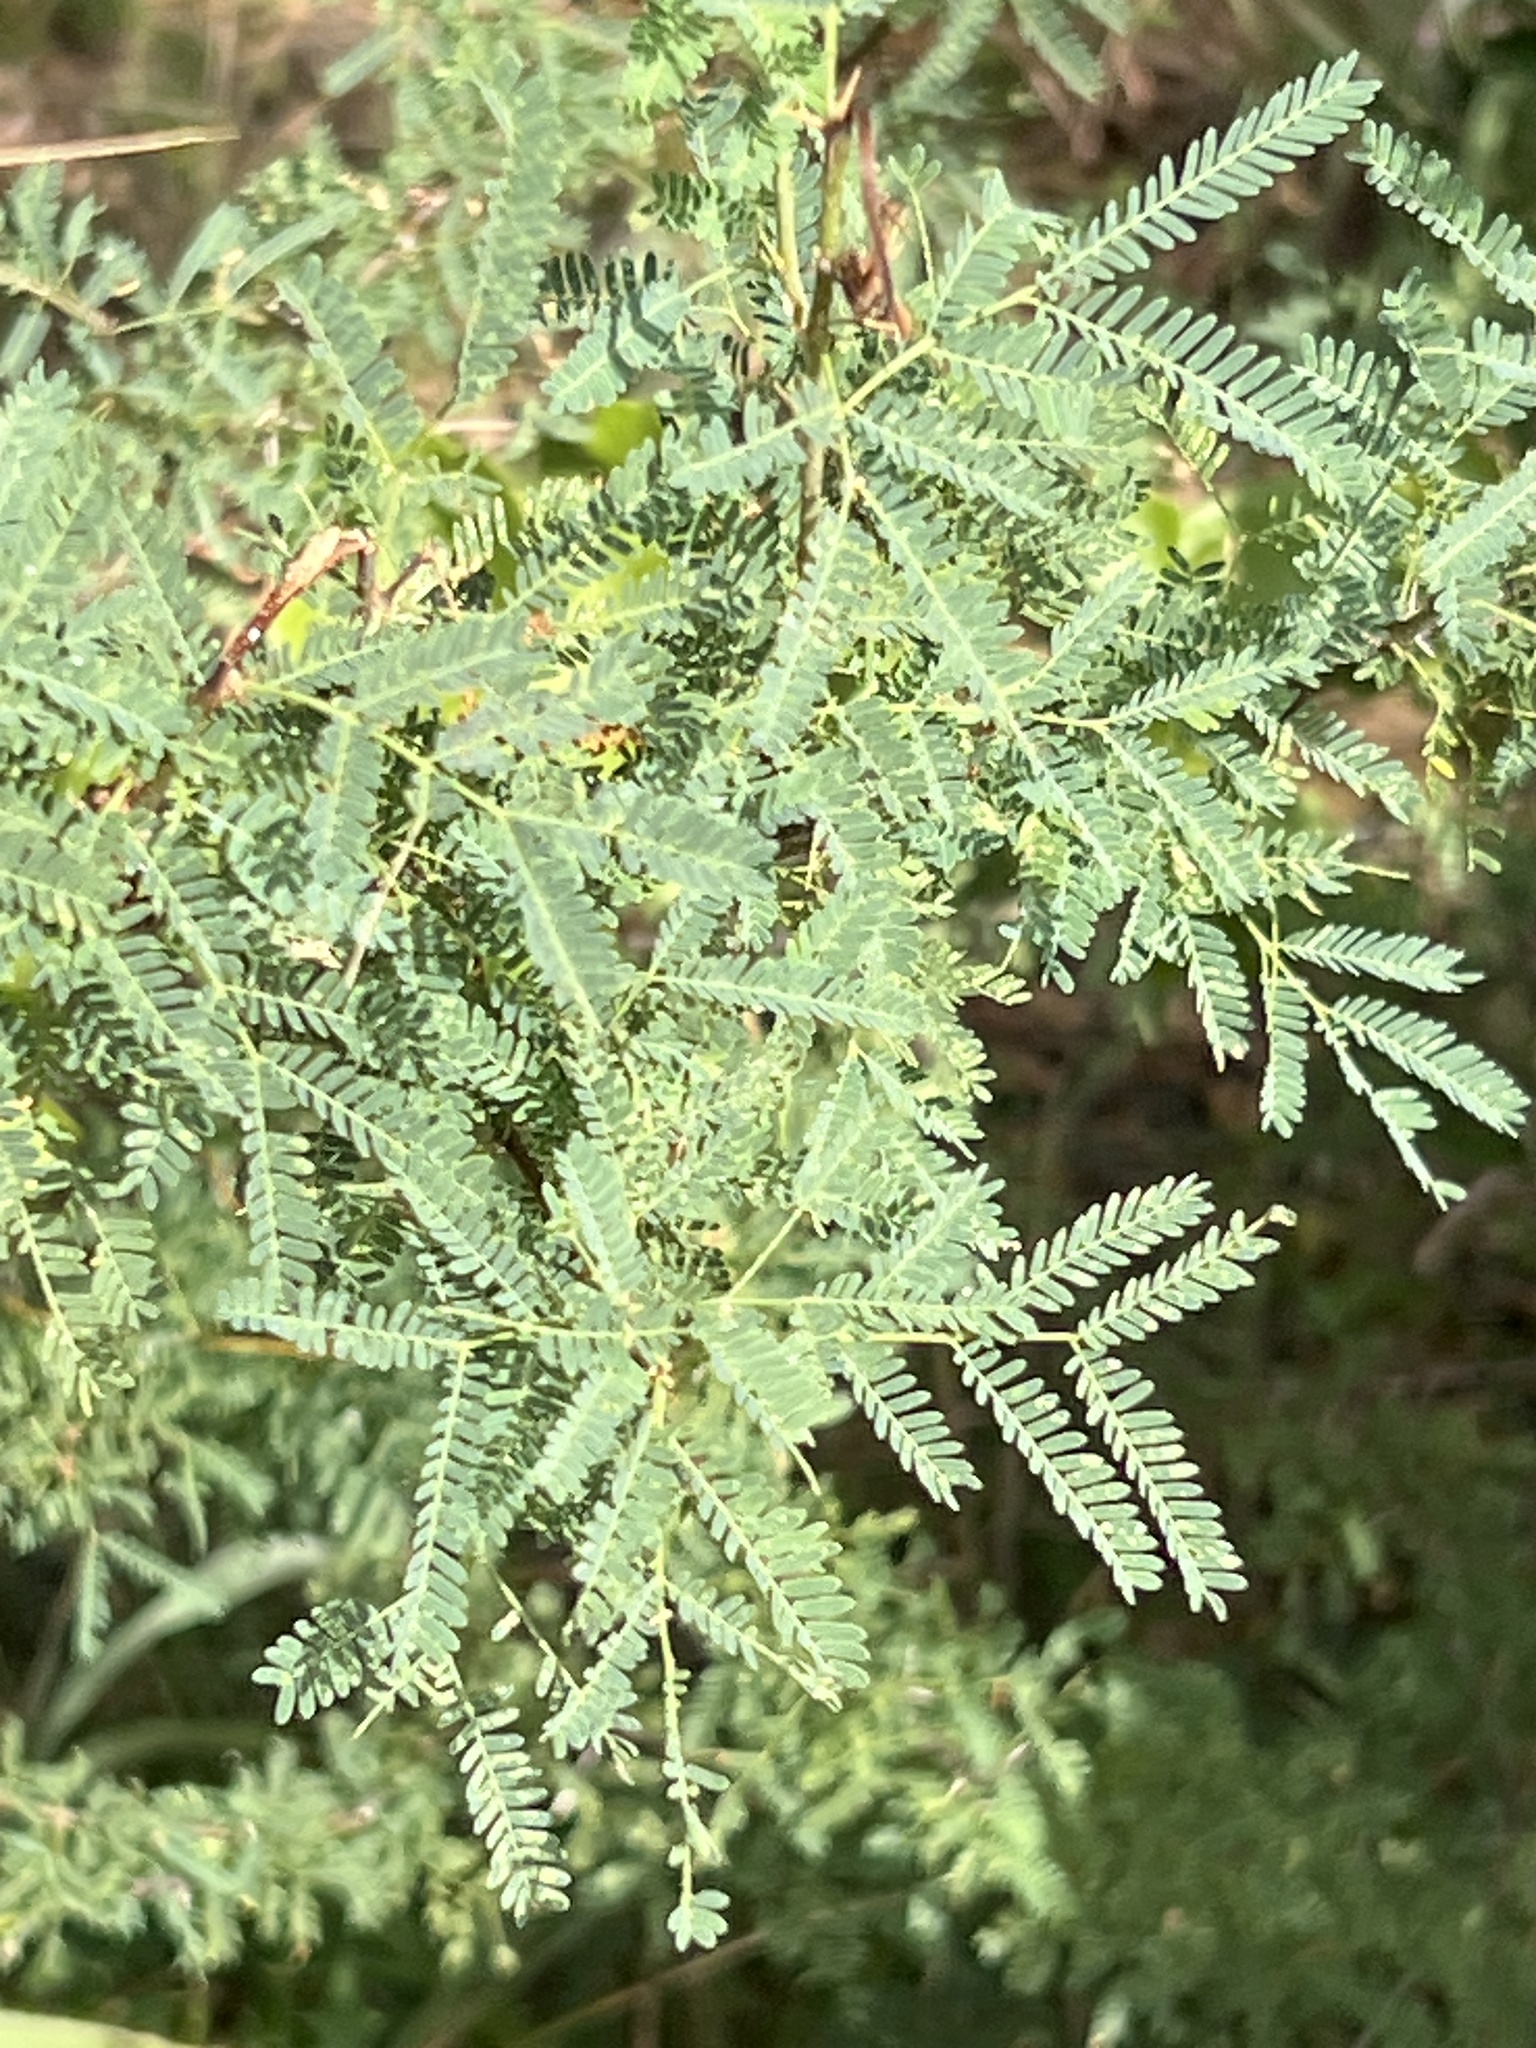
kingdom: Plantae
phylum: Tracheophyta
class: Magnoliopsida
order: Fabales
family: Fabaceae
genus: Vachellia
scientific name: Vachellia farnesiana
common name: Sweet acacia
